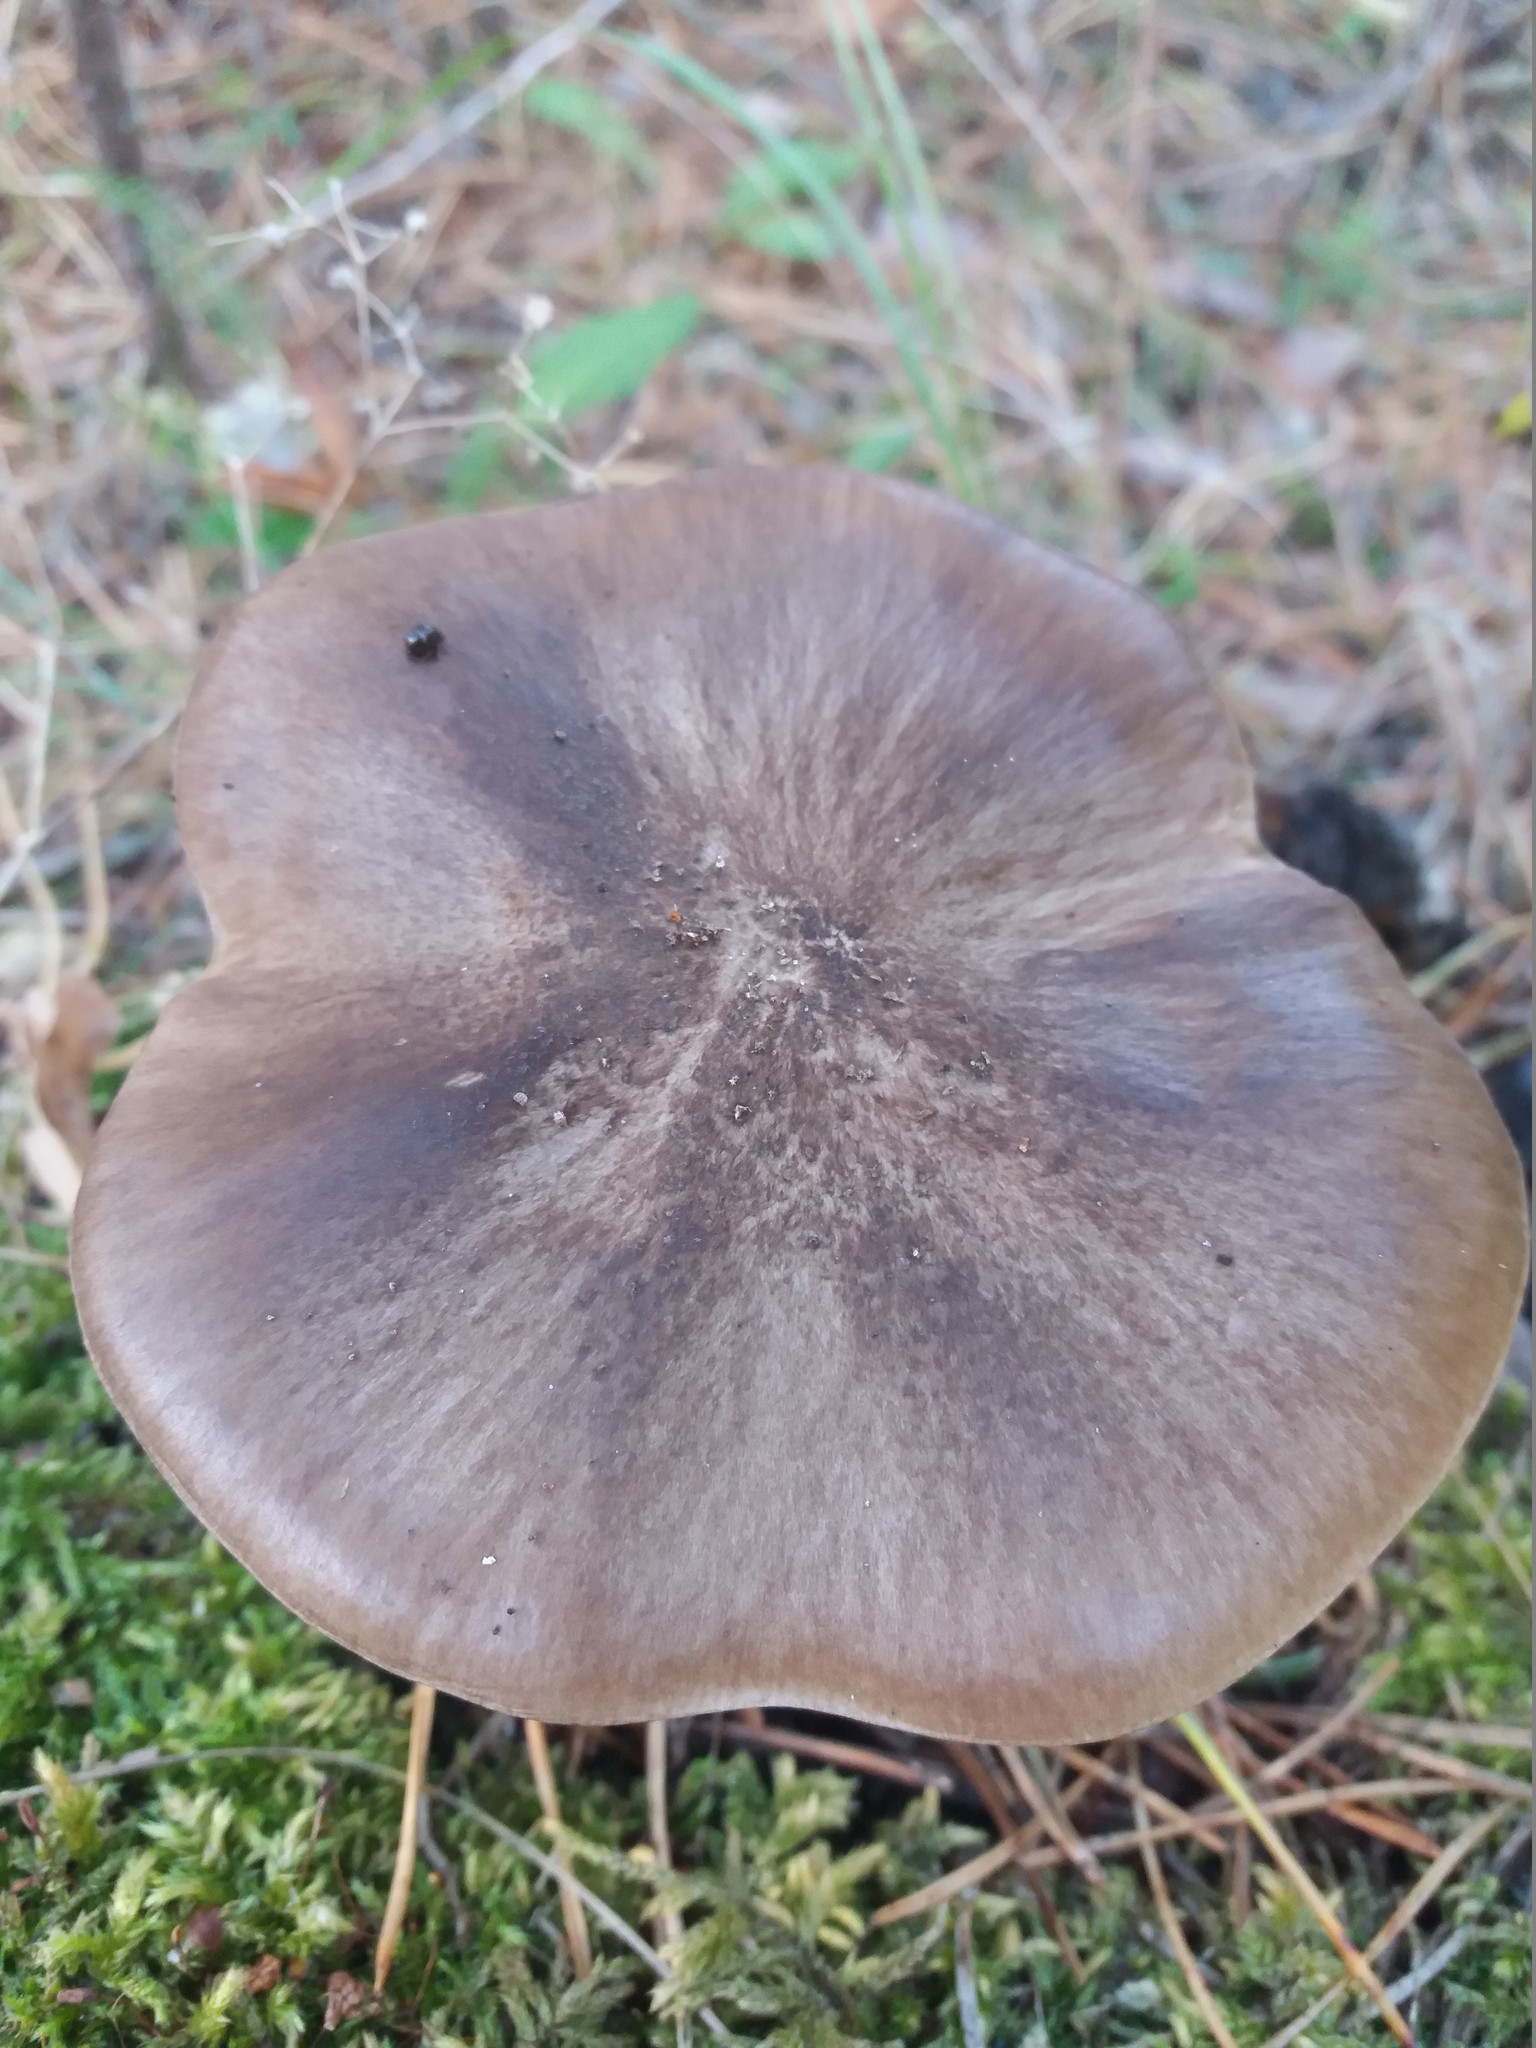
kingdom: Fungi
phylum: Basidiomycota
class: Agaricomycetes
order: Agaricales
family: Pluteaceae
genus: Pluteus
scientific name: Pluteus cervinus
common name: Deer shield
